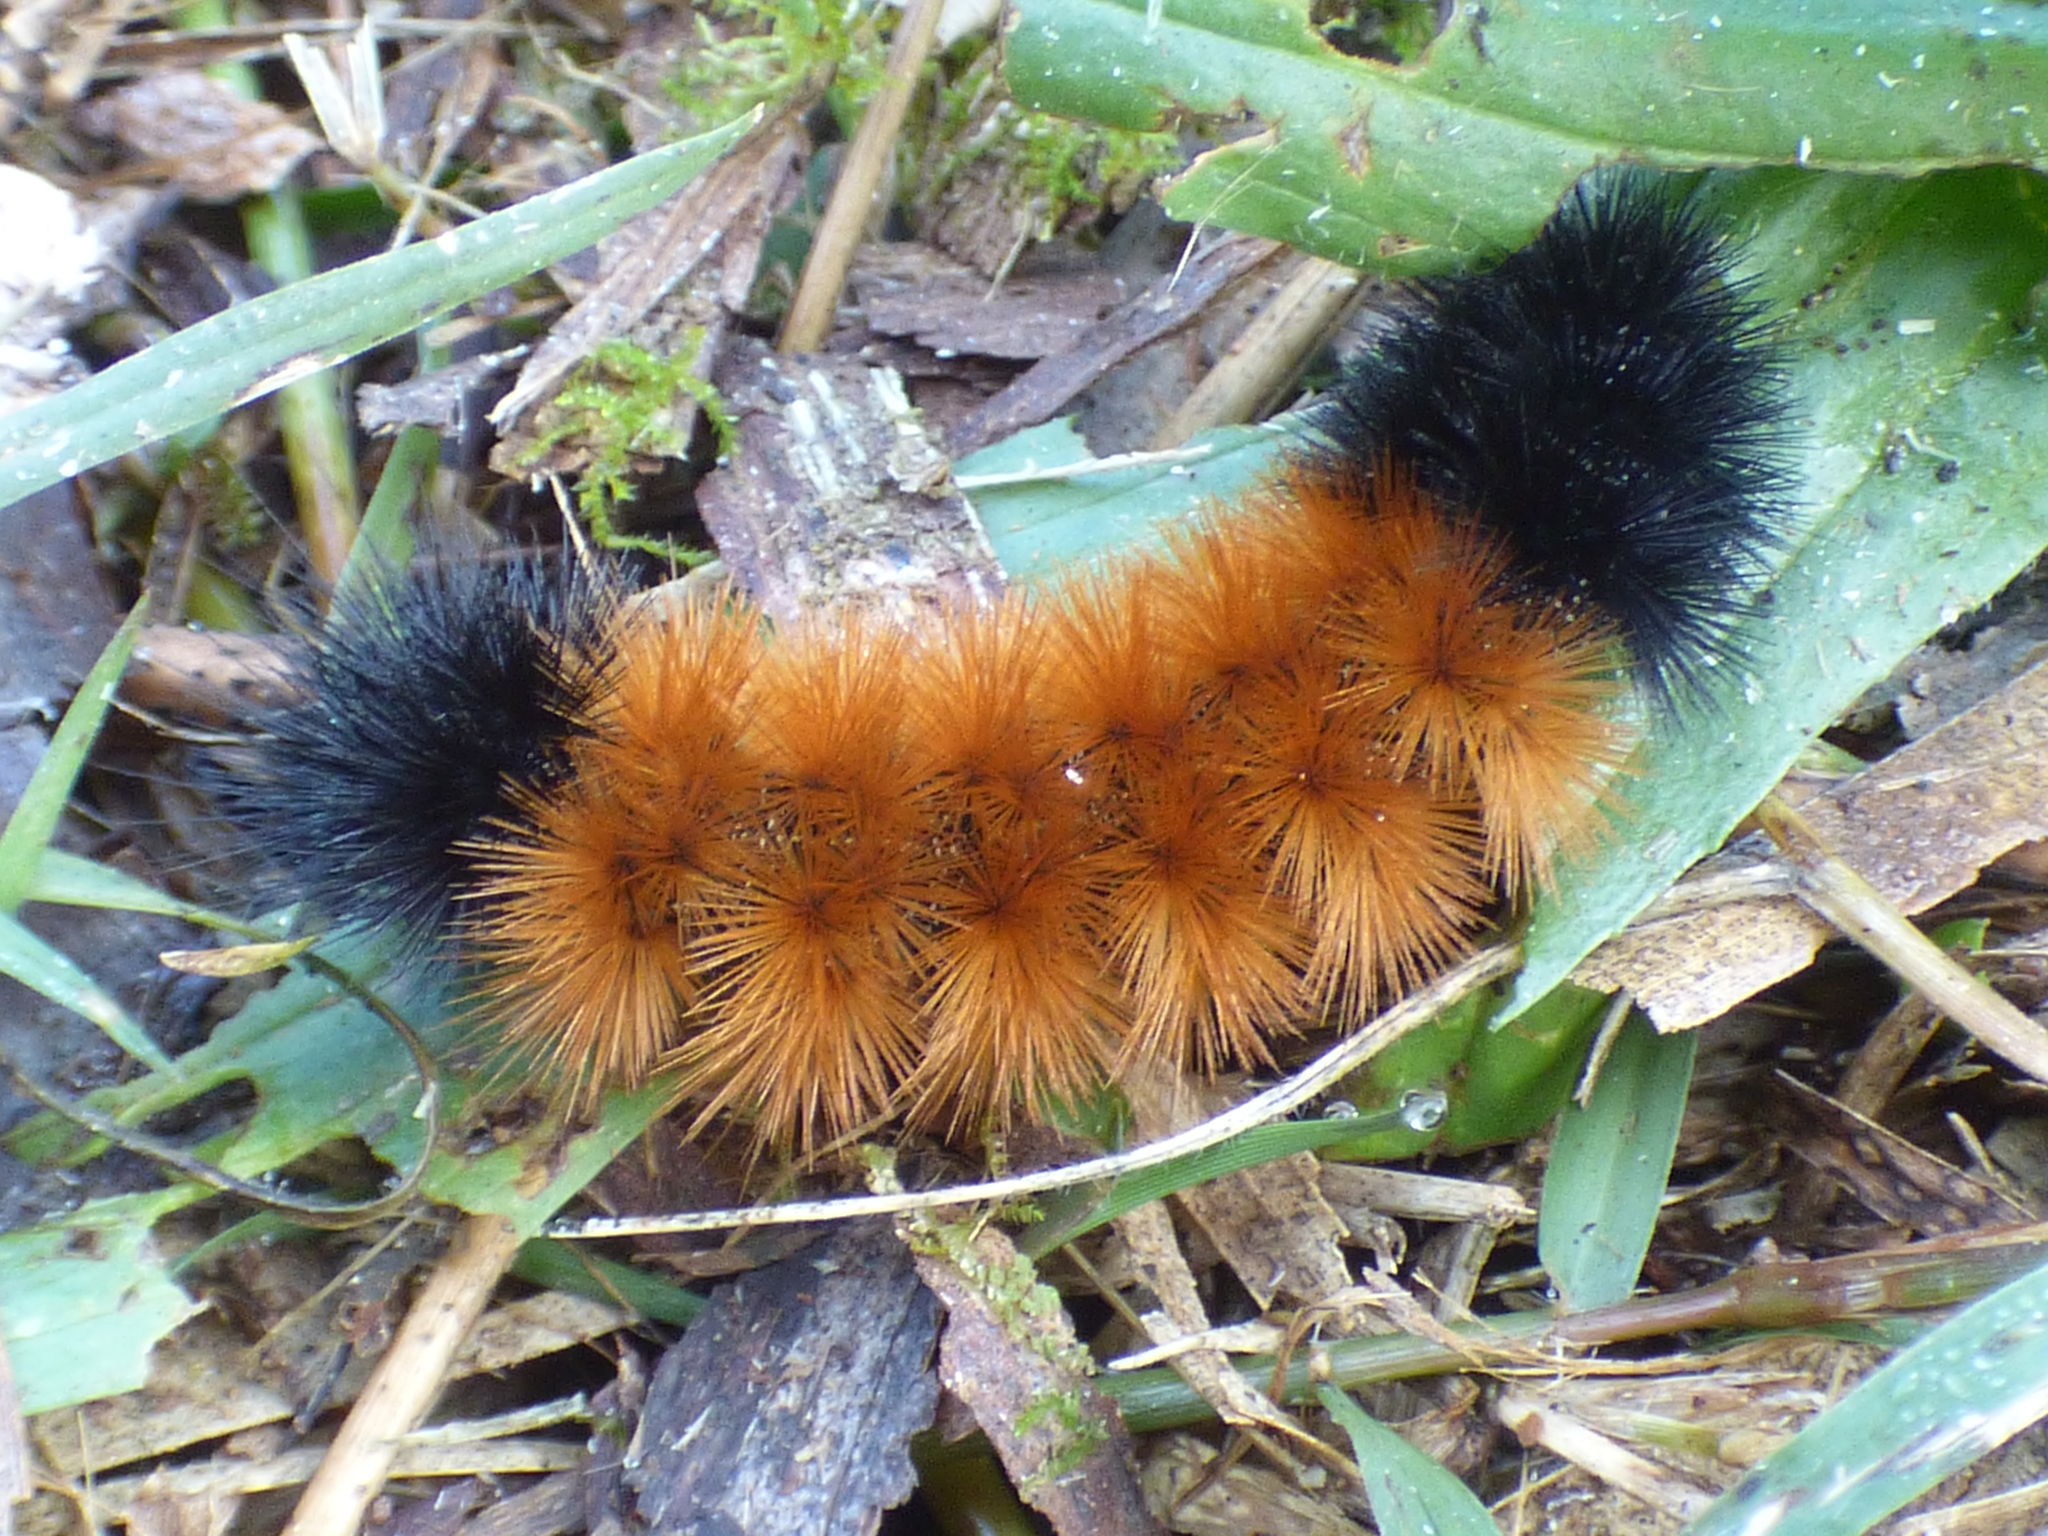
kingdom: Animalia
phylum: Arthropoda
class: Insecta
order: Lepidoptera
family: Erebidae
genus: Pyrrharctia
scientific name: Pyrrharctia isabella
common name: Isabella tiger moth
